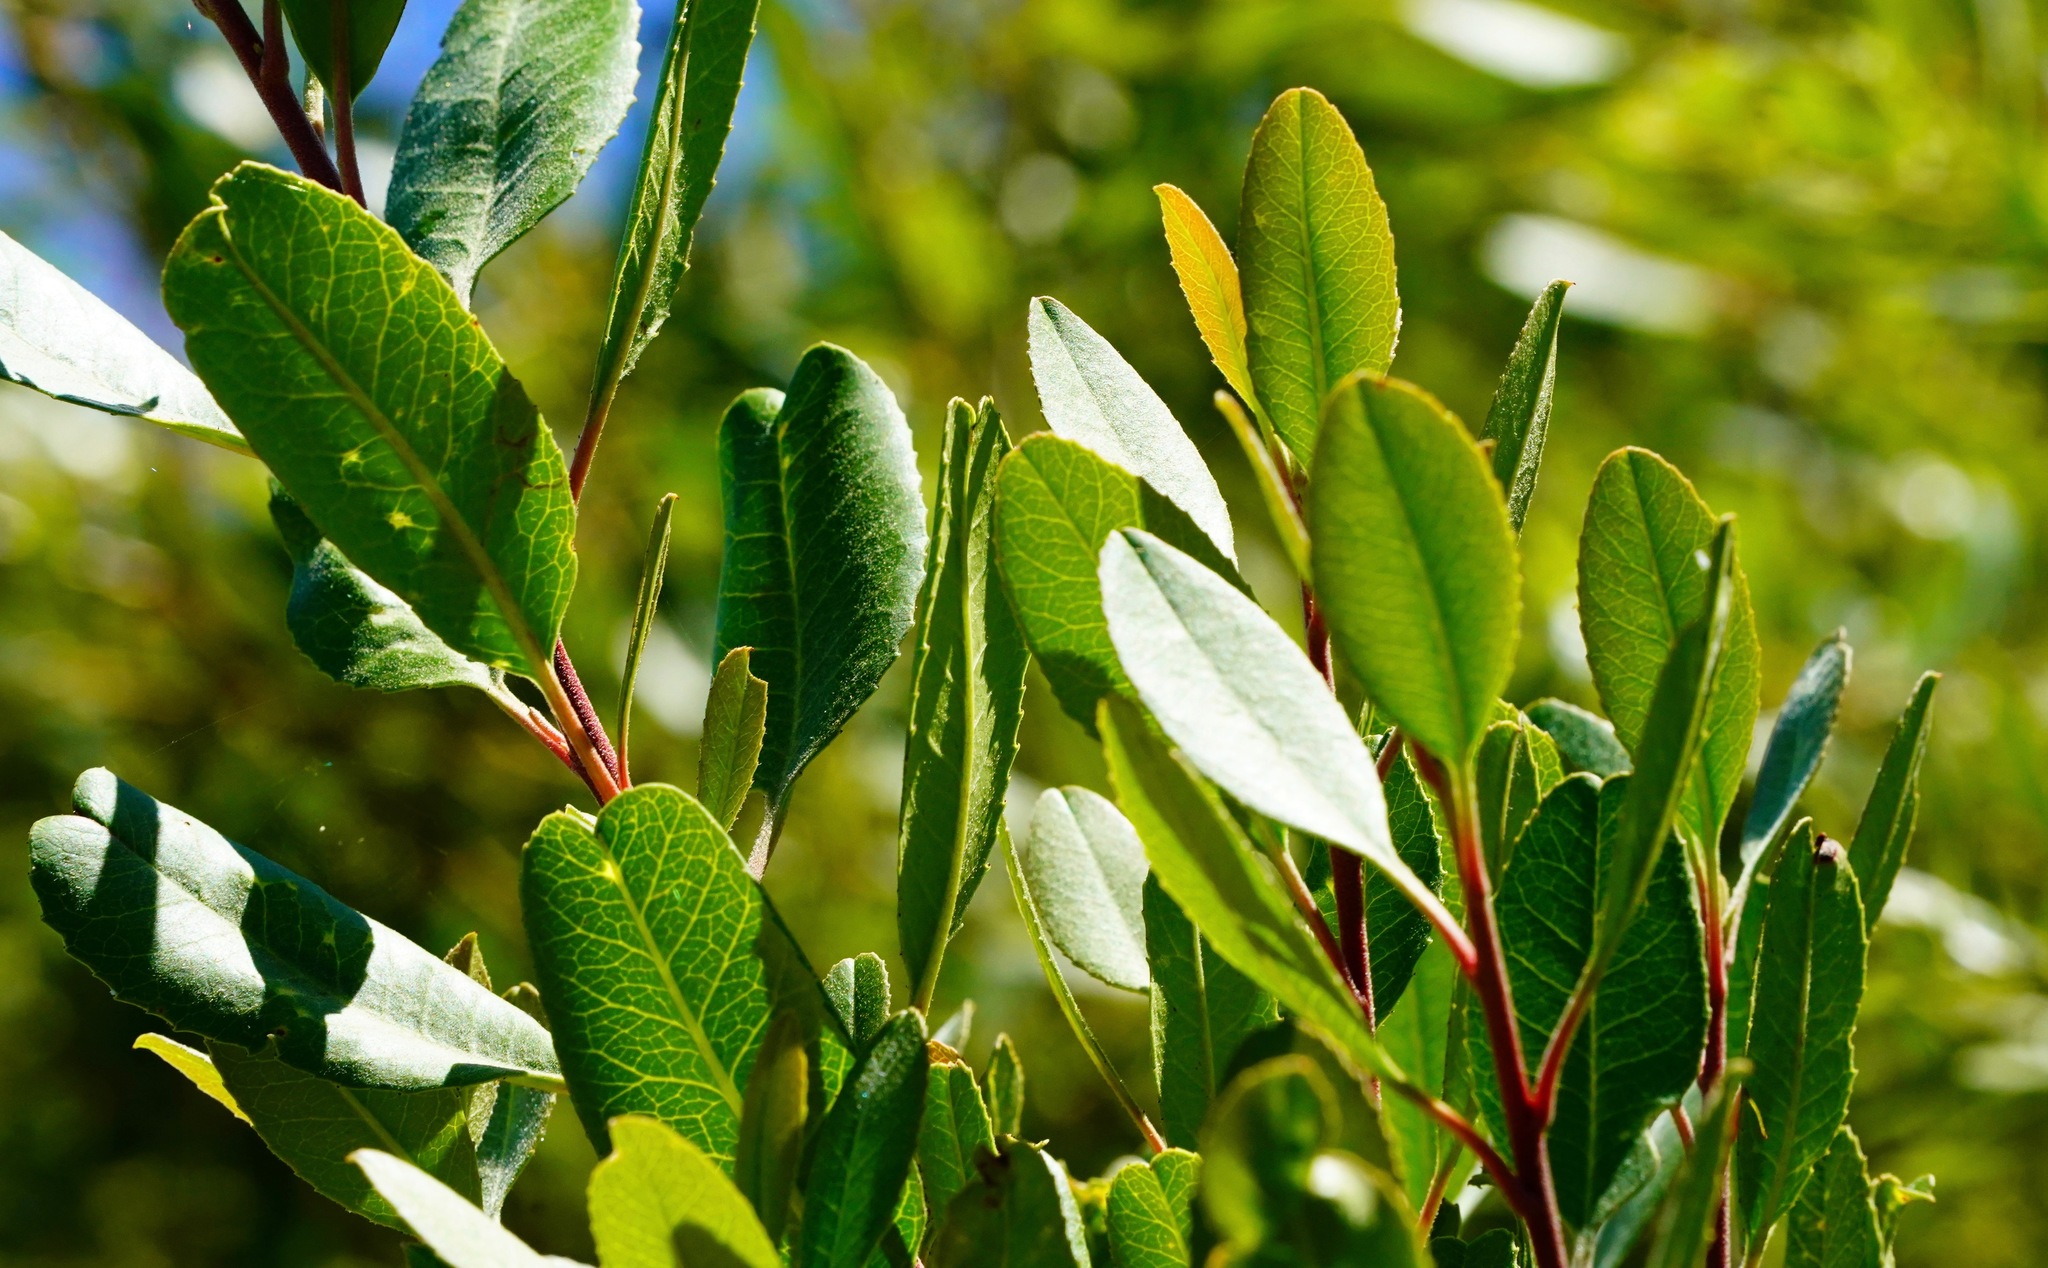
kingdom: Plantae
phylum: Tracheophyta
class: Magnoliopsida
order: Rosales
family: Rosaceae
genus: Heteromeles
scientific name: Heteromeles arbutifolia
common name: California-holly
